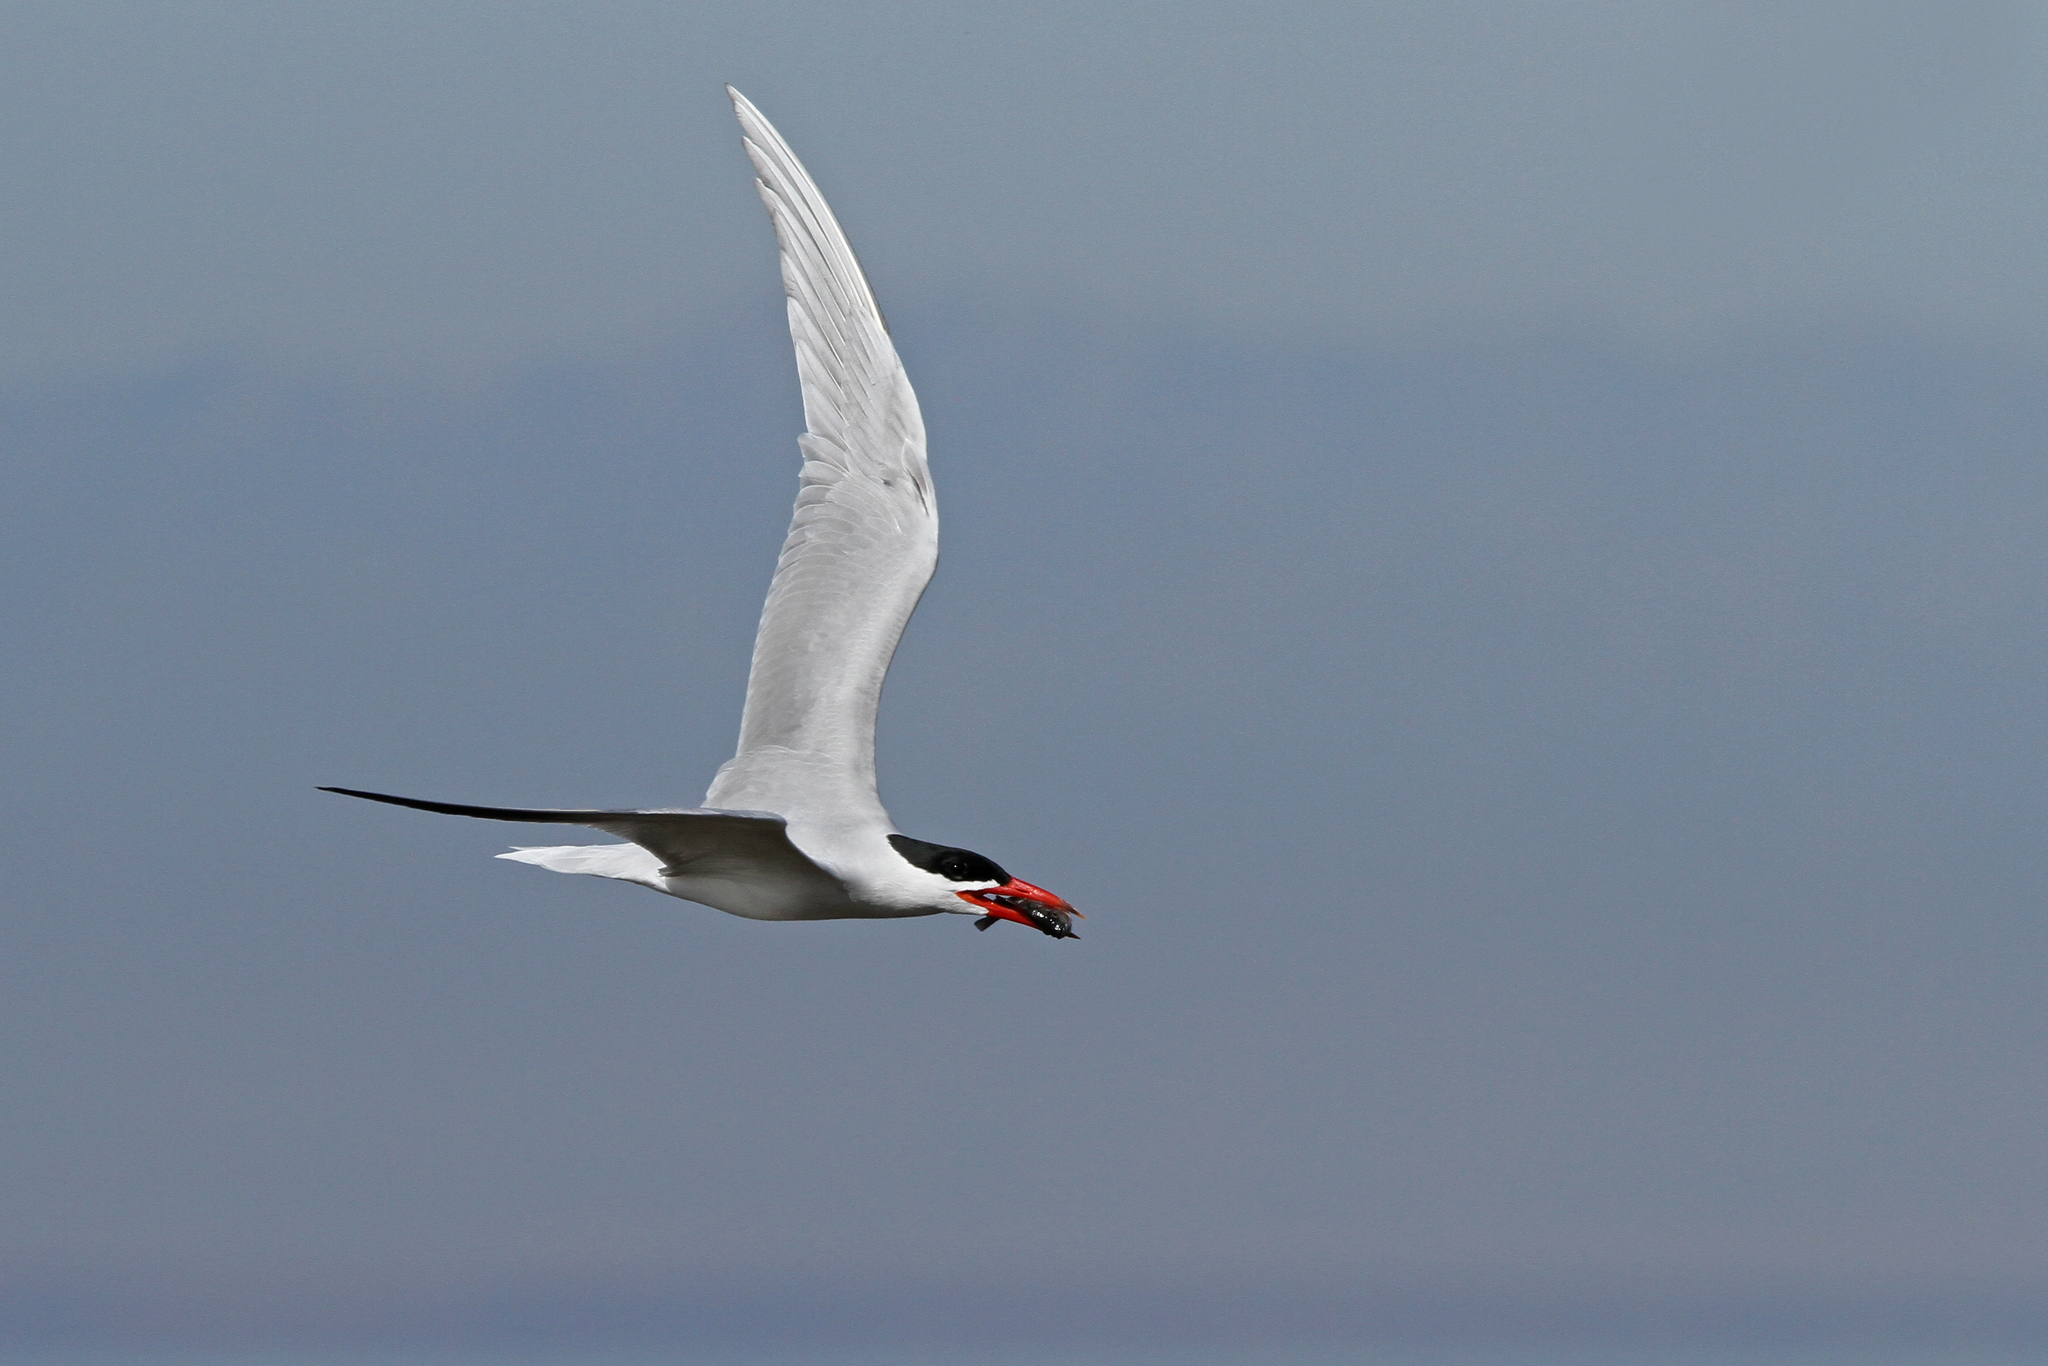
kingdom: Animalia
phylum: Chordata
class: Aves
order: Charadriiformes
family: Laridae
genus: Hydroprogne
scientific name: Hydroprogne caspia
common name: Caspian tern
